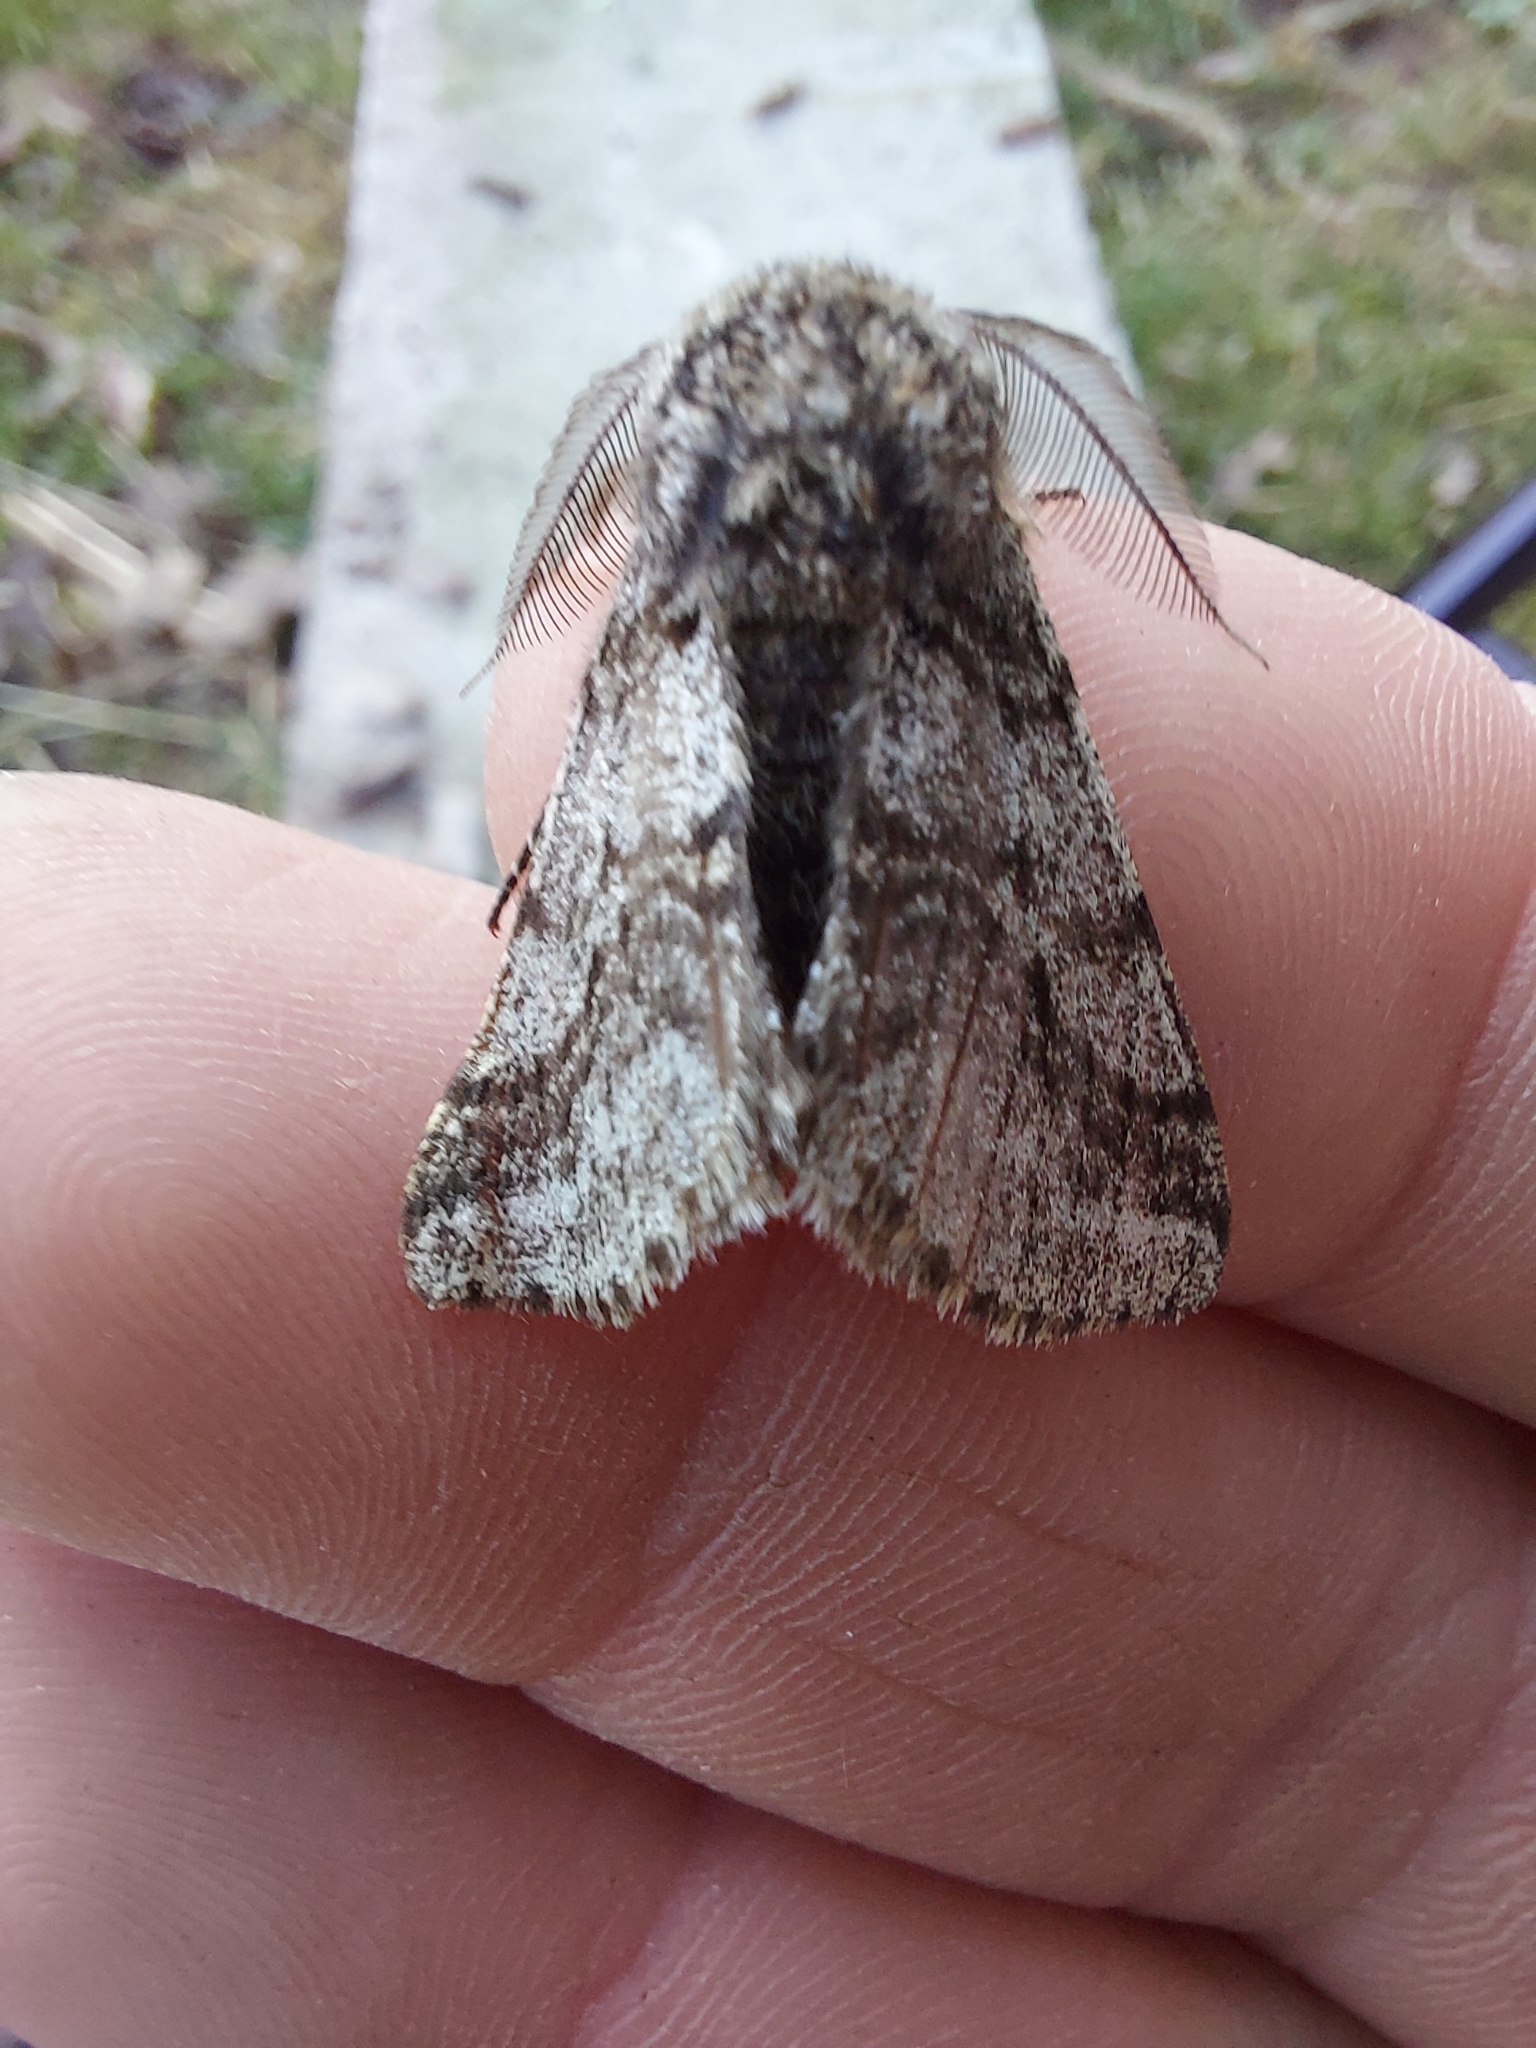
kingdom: Animalia
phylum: Arthropoda
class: Insecta
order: Lepidoptera
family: Geometridae
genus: Lycia
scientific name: Lycia hirtaria
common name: Brindled beauty
